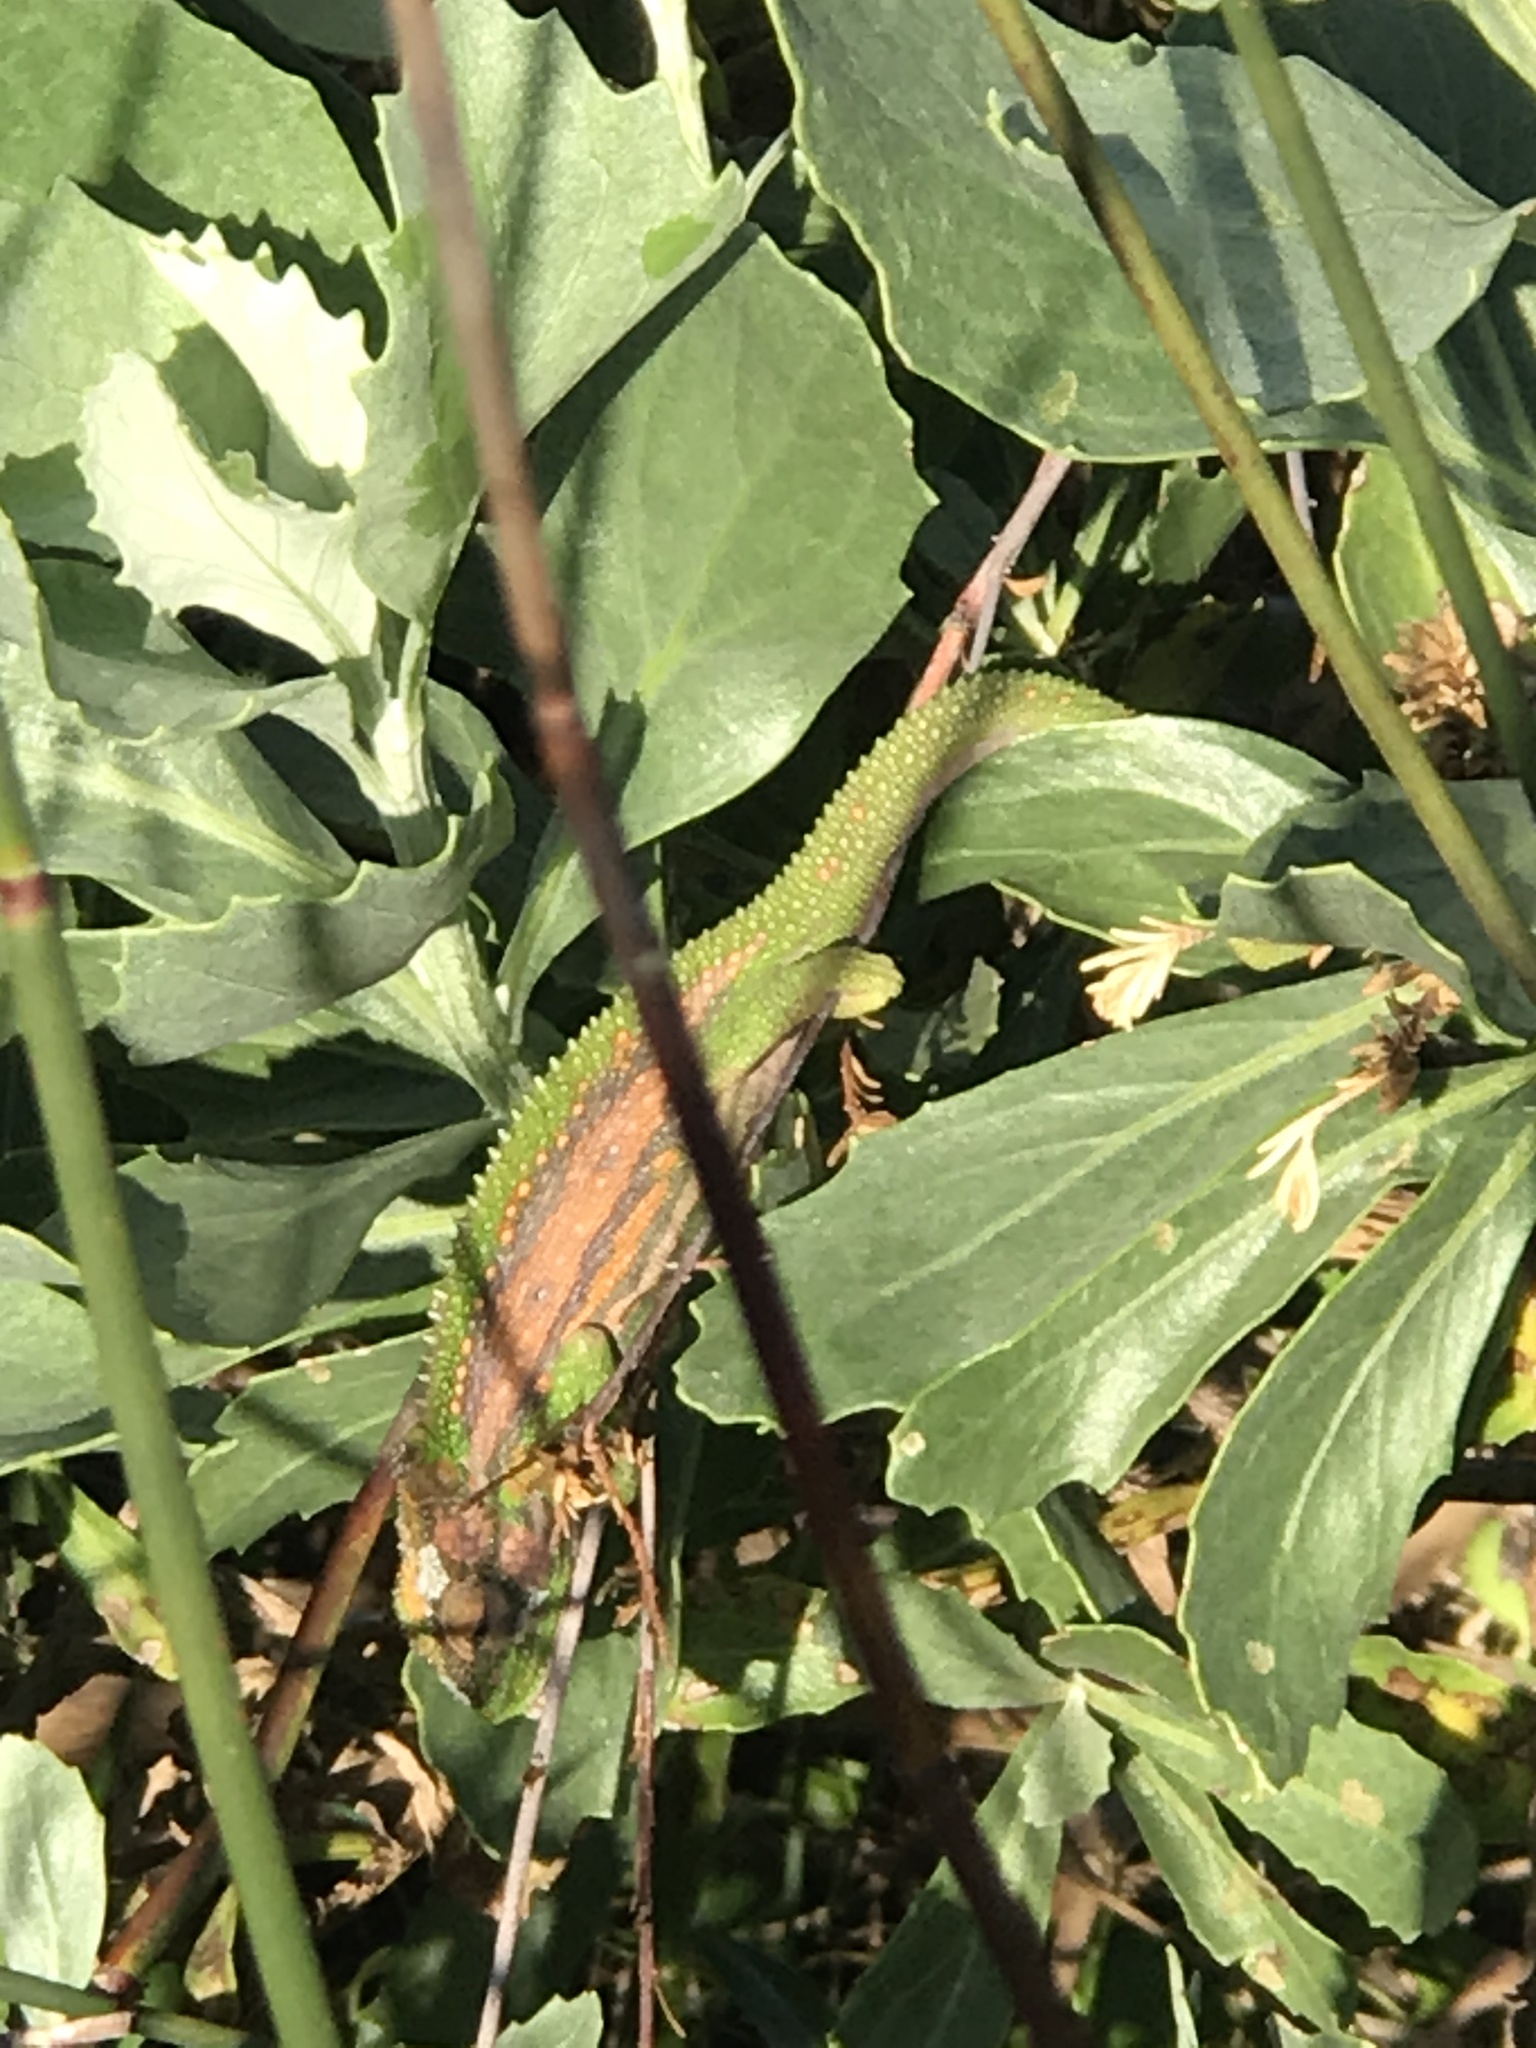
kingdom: Animalia
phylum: Chordata
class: Squamata
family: Chamaeleonidae
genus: Bradypodion
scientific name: Bradypodion pumilum
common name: Cape dwarf chameleon
